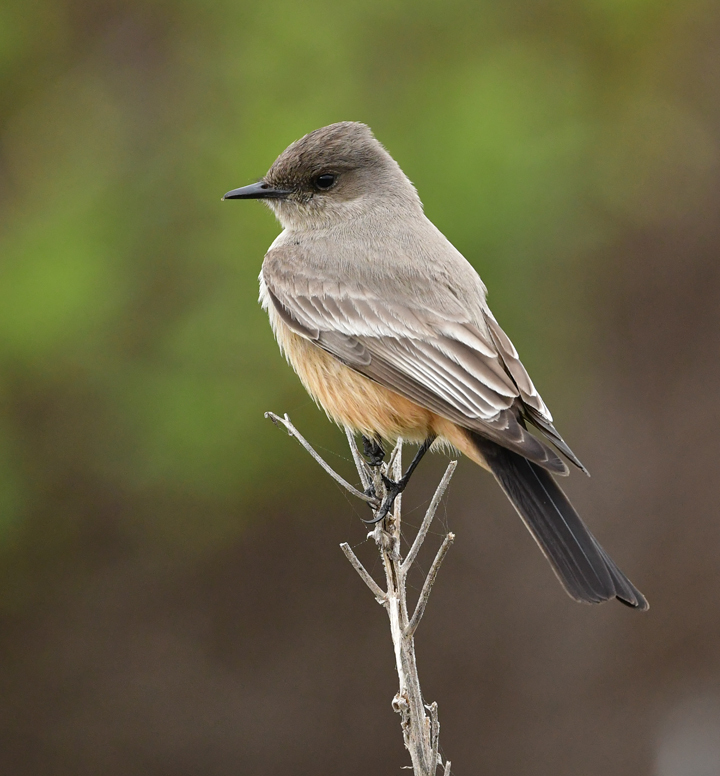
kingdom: Animalia
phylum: Chordata
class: Aves
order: Passeriformes
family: Tyrannidae
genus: Sayornis
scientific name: Sayornis saya
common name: Say's phoebe
